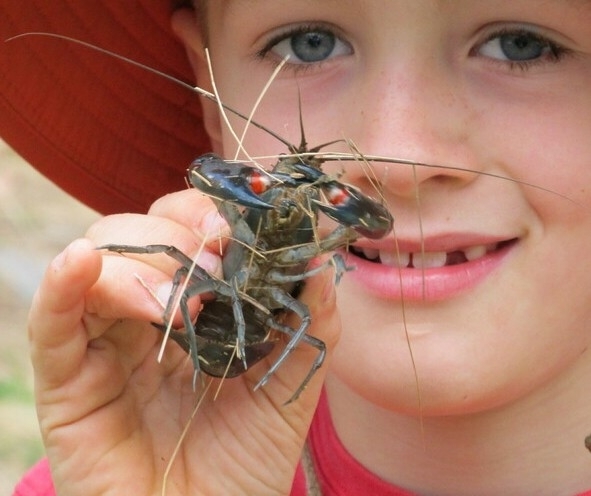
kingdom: Animalia
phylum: Arthropoda
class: Malacostraca
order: Decapoda
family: Parastacidae
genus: Cherax
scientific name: Cherax destructor
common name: Yabby
